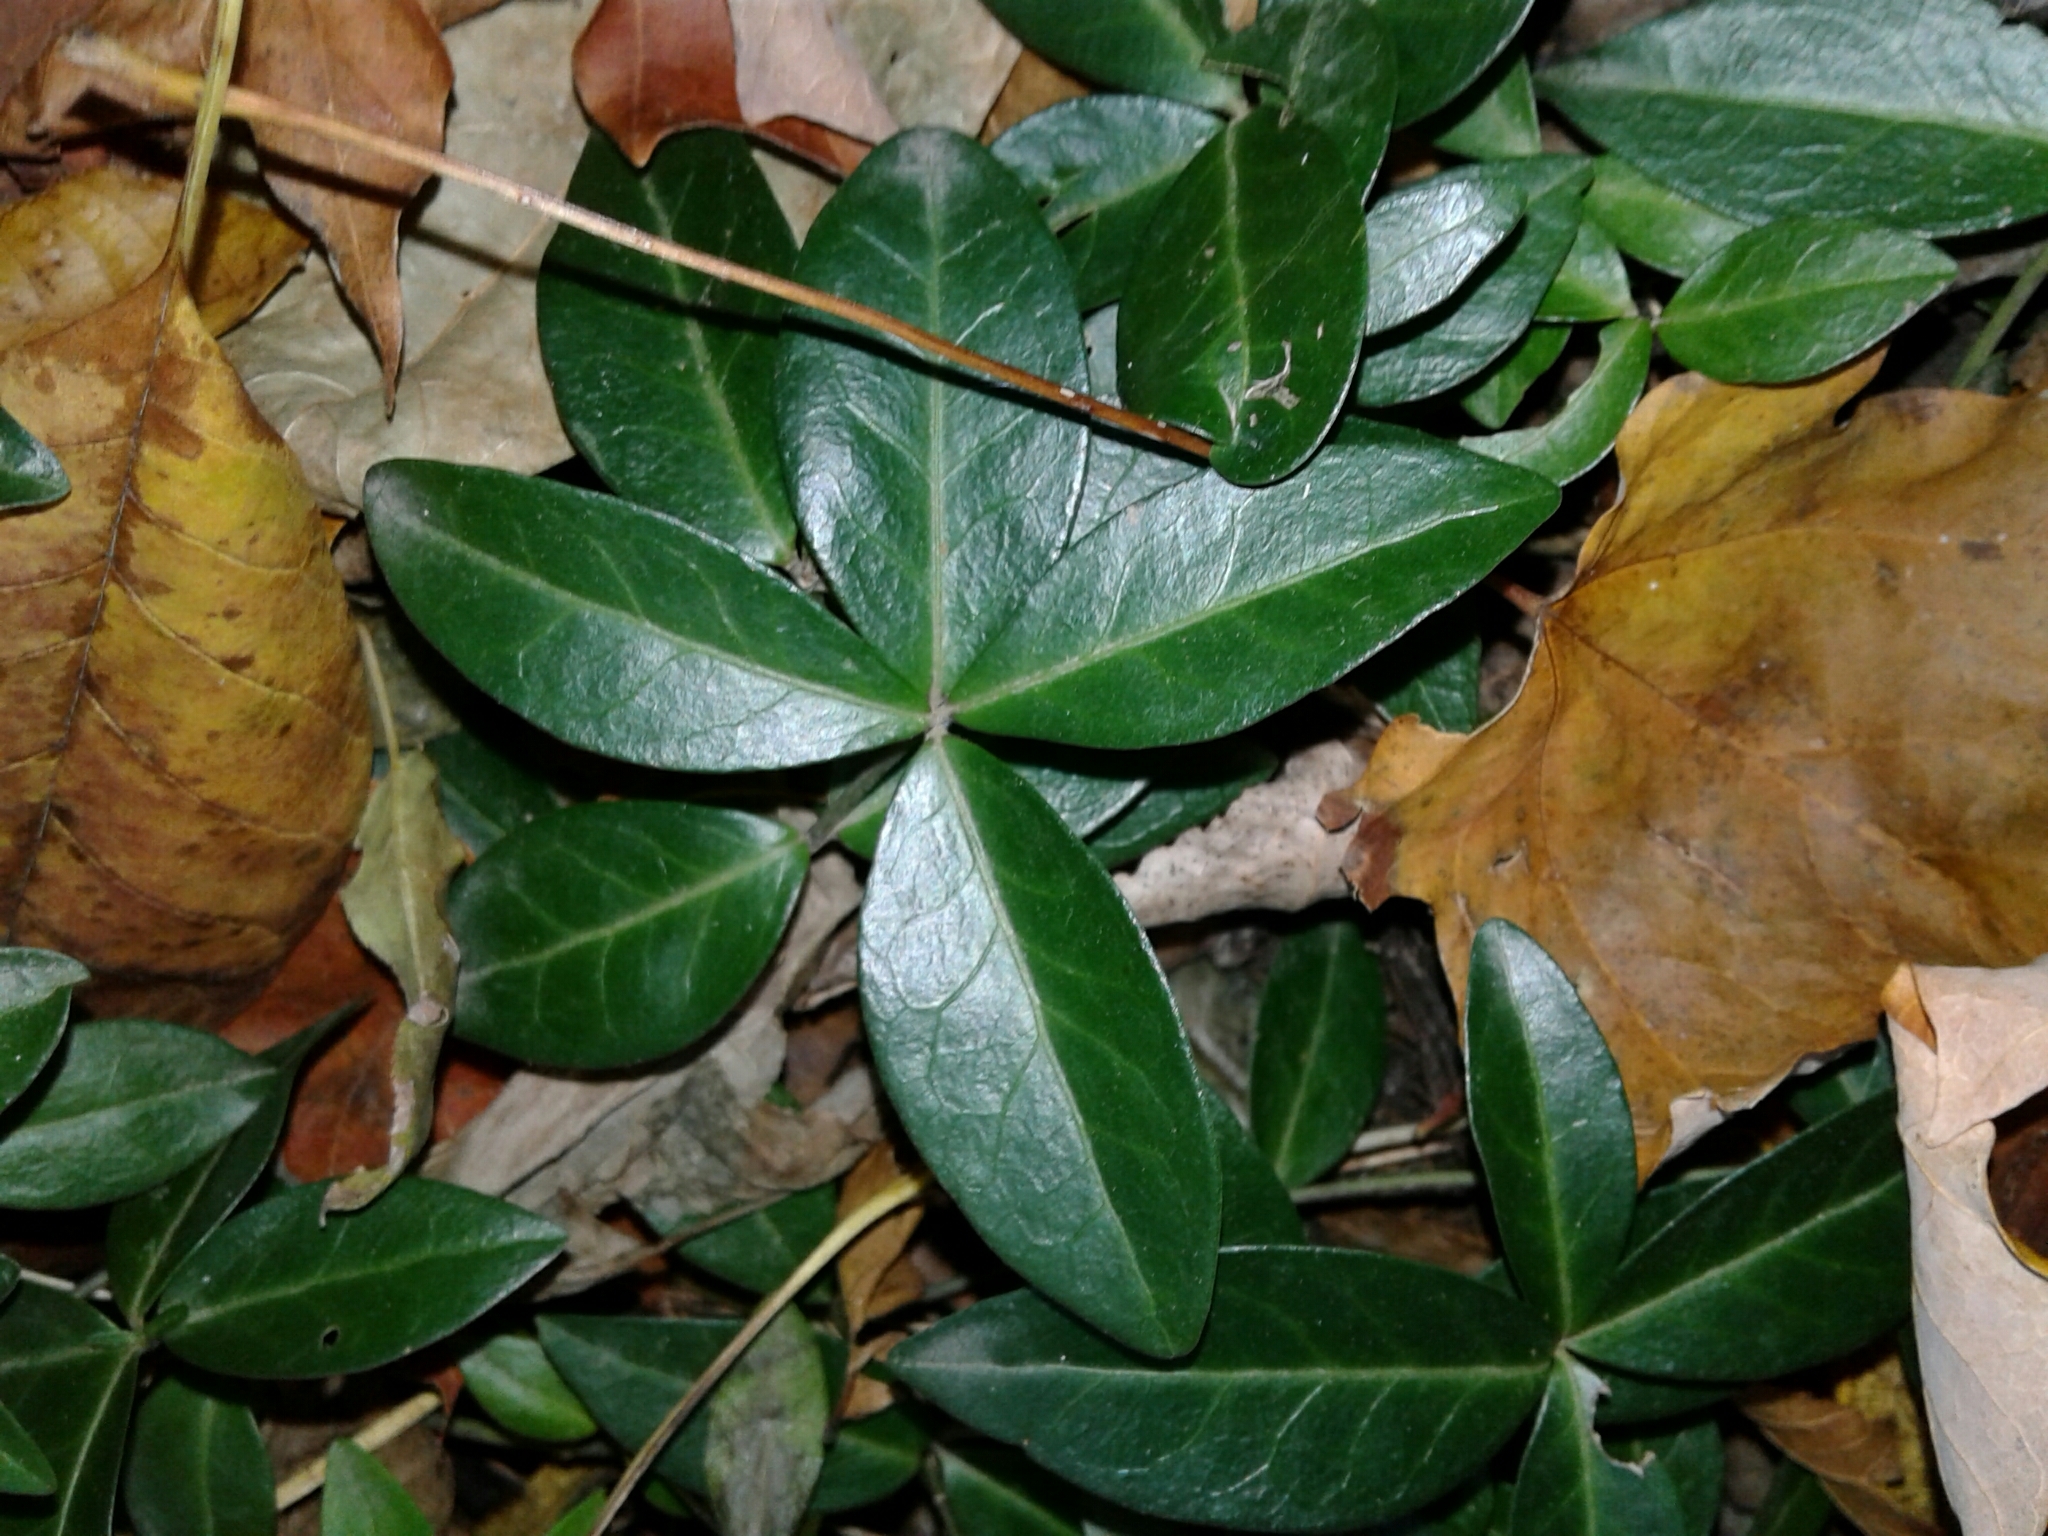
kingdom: Plantae
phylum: Tracheophyta
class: Magnoliopsida
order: Gentianales
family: Apocynaceae
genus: Vinca
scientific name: Vinca minor
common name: Lesser periwinkle
